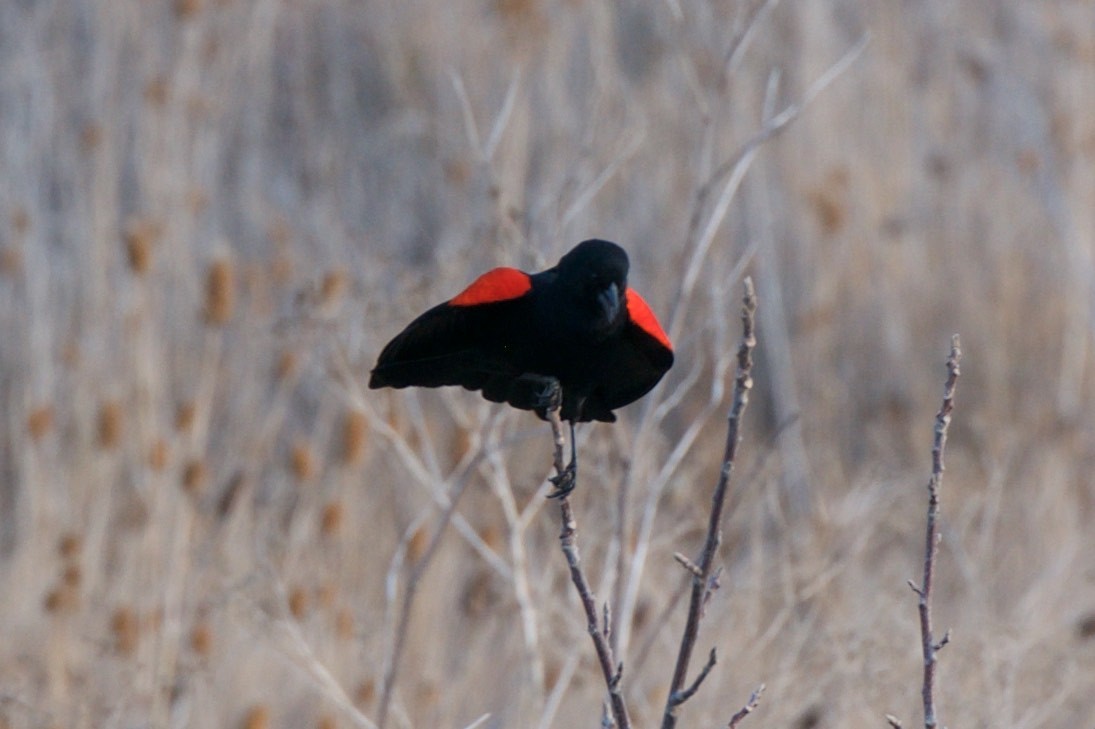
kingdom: Animalia
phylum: Chordata
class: Aves
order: Passeriformes
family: Icteridae
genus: Agelaius
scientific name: Agelaius phoeniceus
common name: Red-winged blackbird
